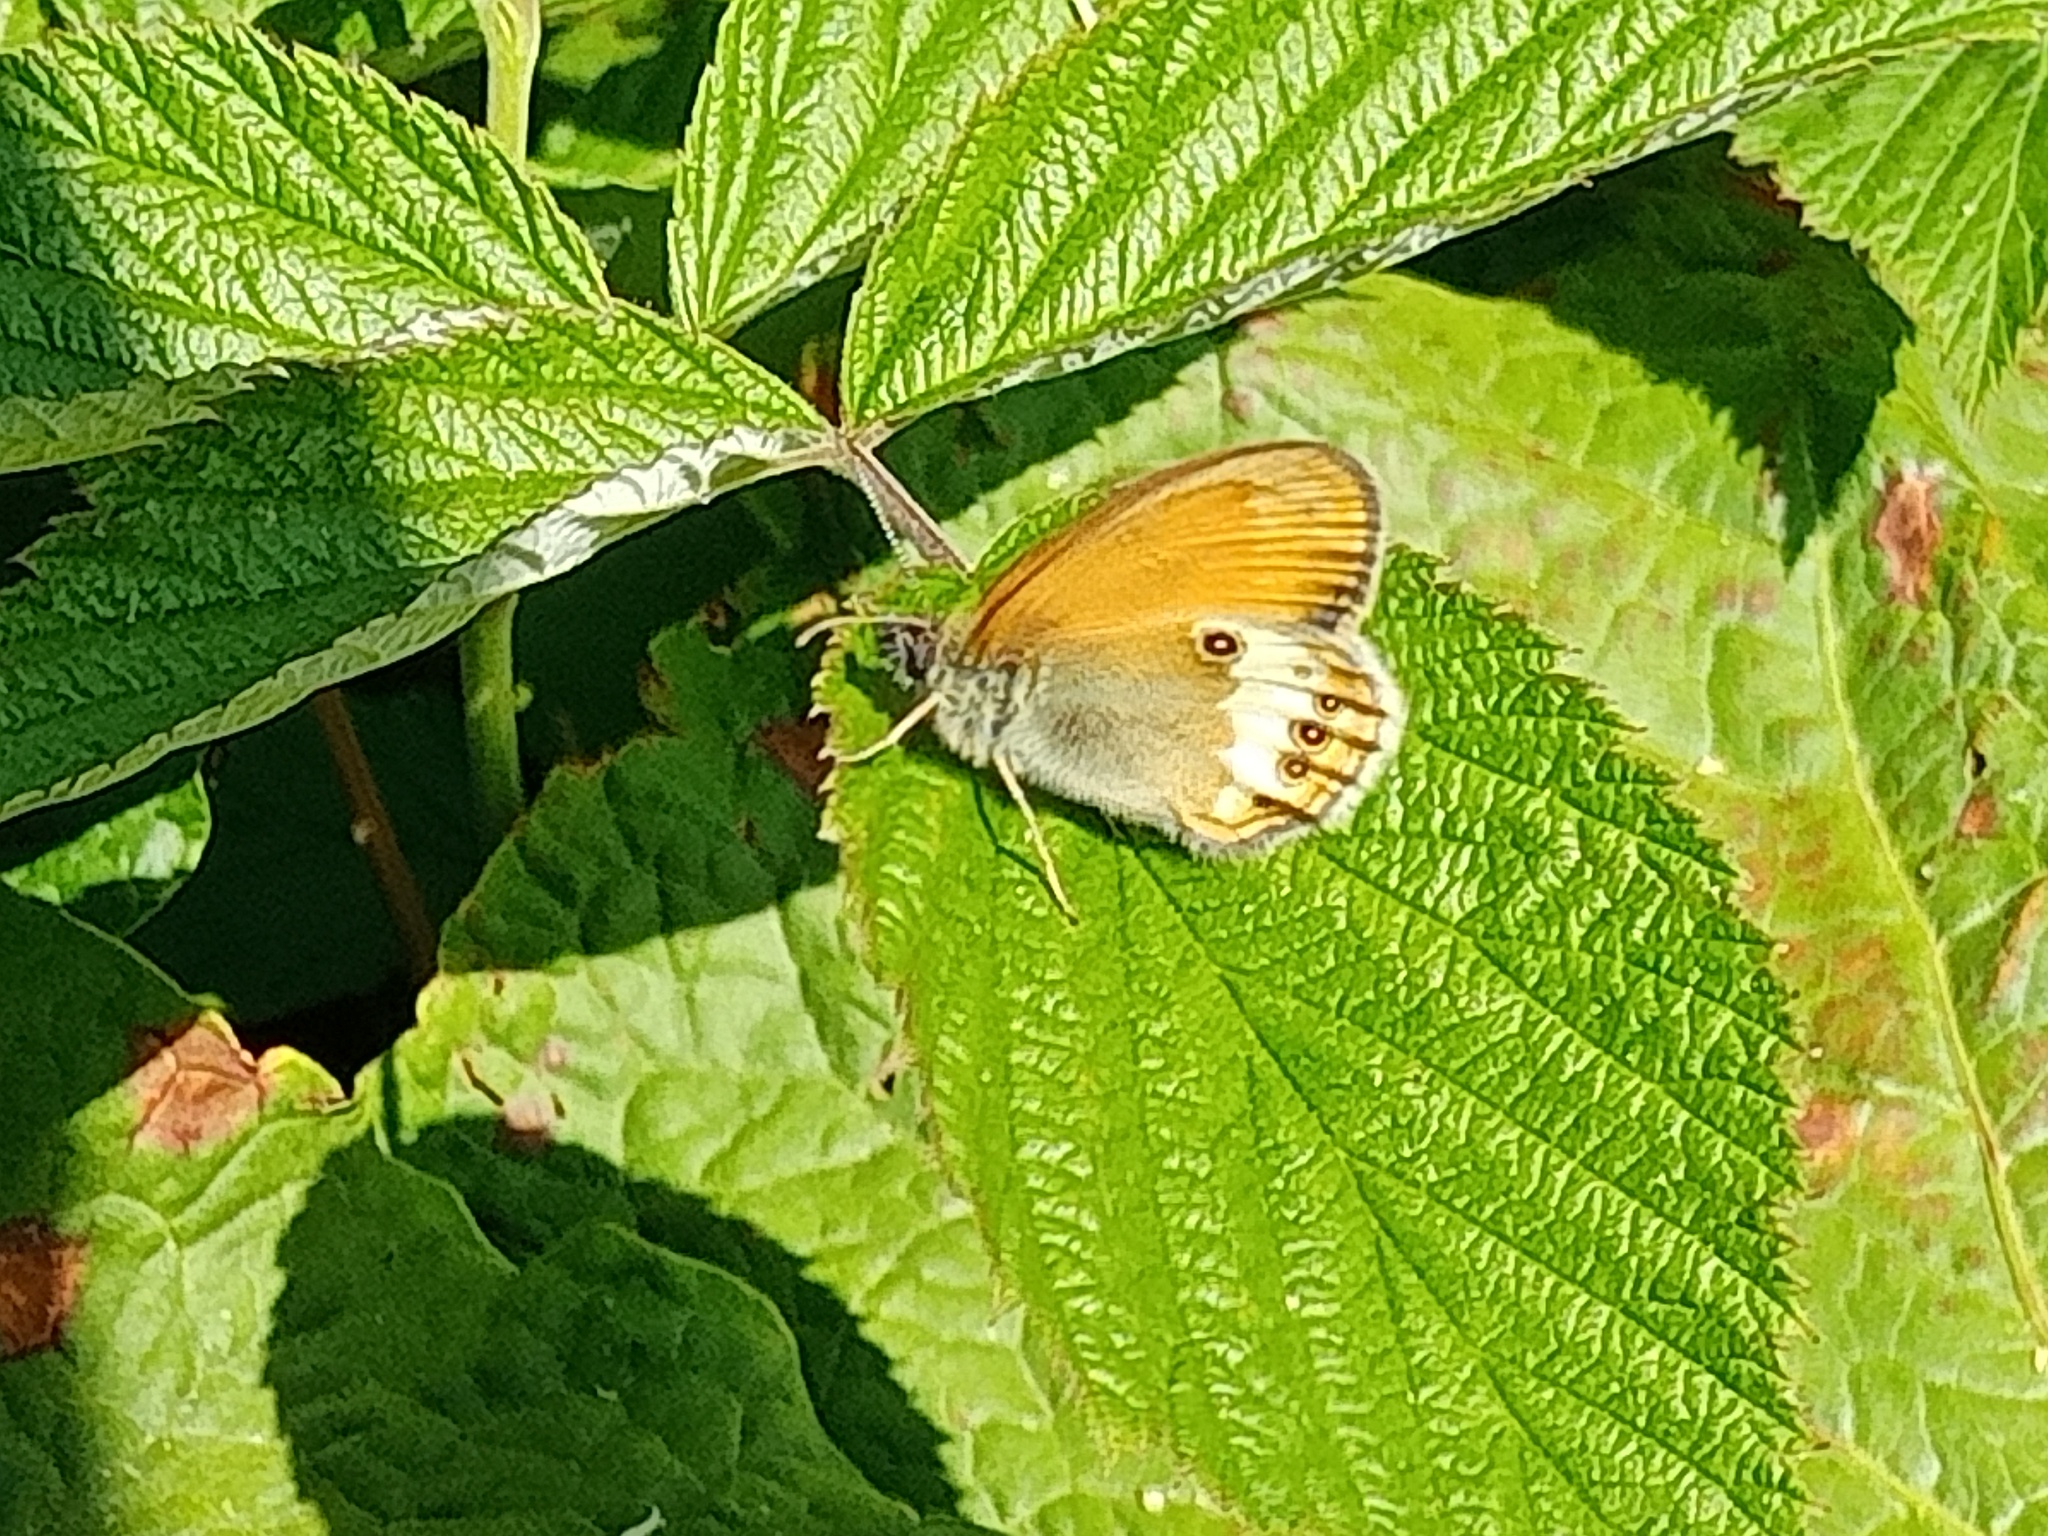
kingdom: Animalia
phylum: Arthropoda
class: Insecta
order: Lepidoptera
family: Nymphalidae
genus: Coenonympha
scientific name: Coenonympha arcania
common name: Pearly heath
